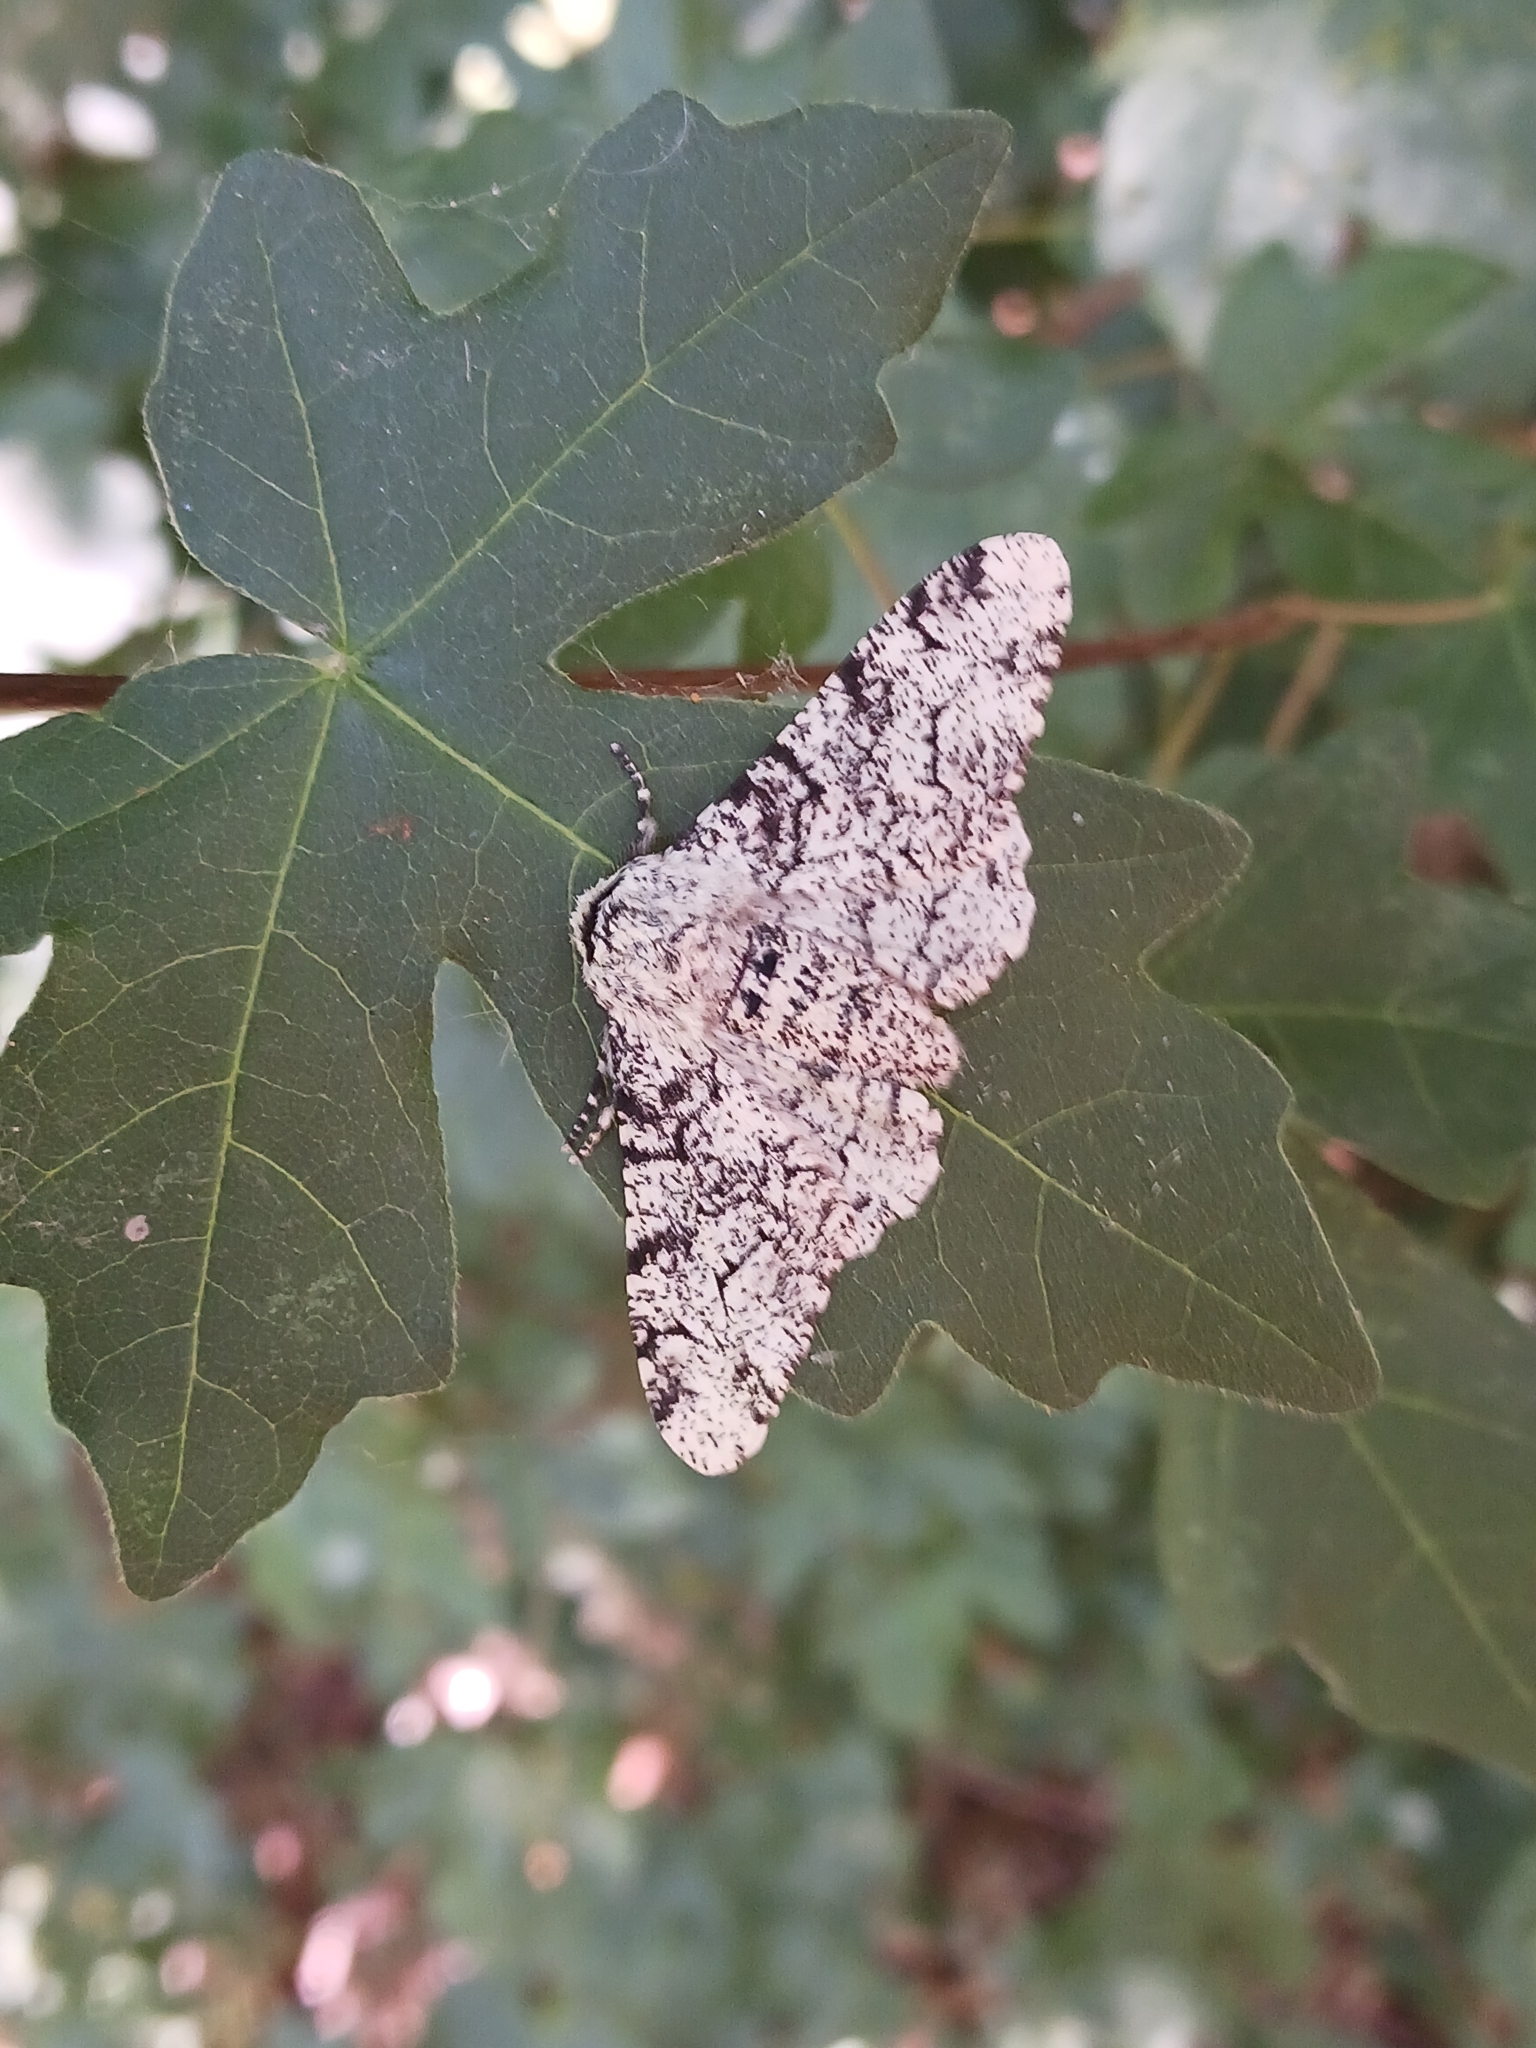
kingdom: Animalia
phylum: Arthropoda
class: Insecta
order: Lepidoptera
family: Geometridae
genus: Biston
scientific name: Biston betularia
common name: Peppered moth
